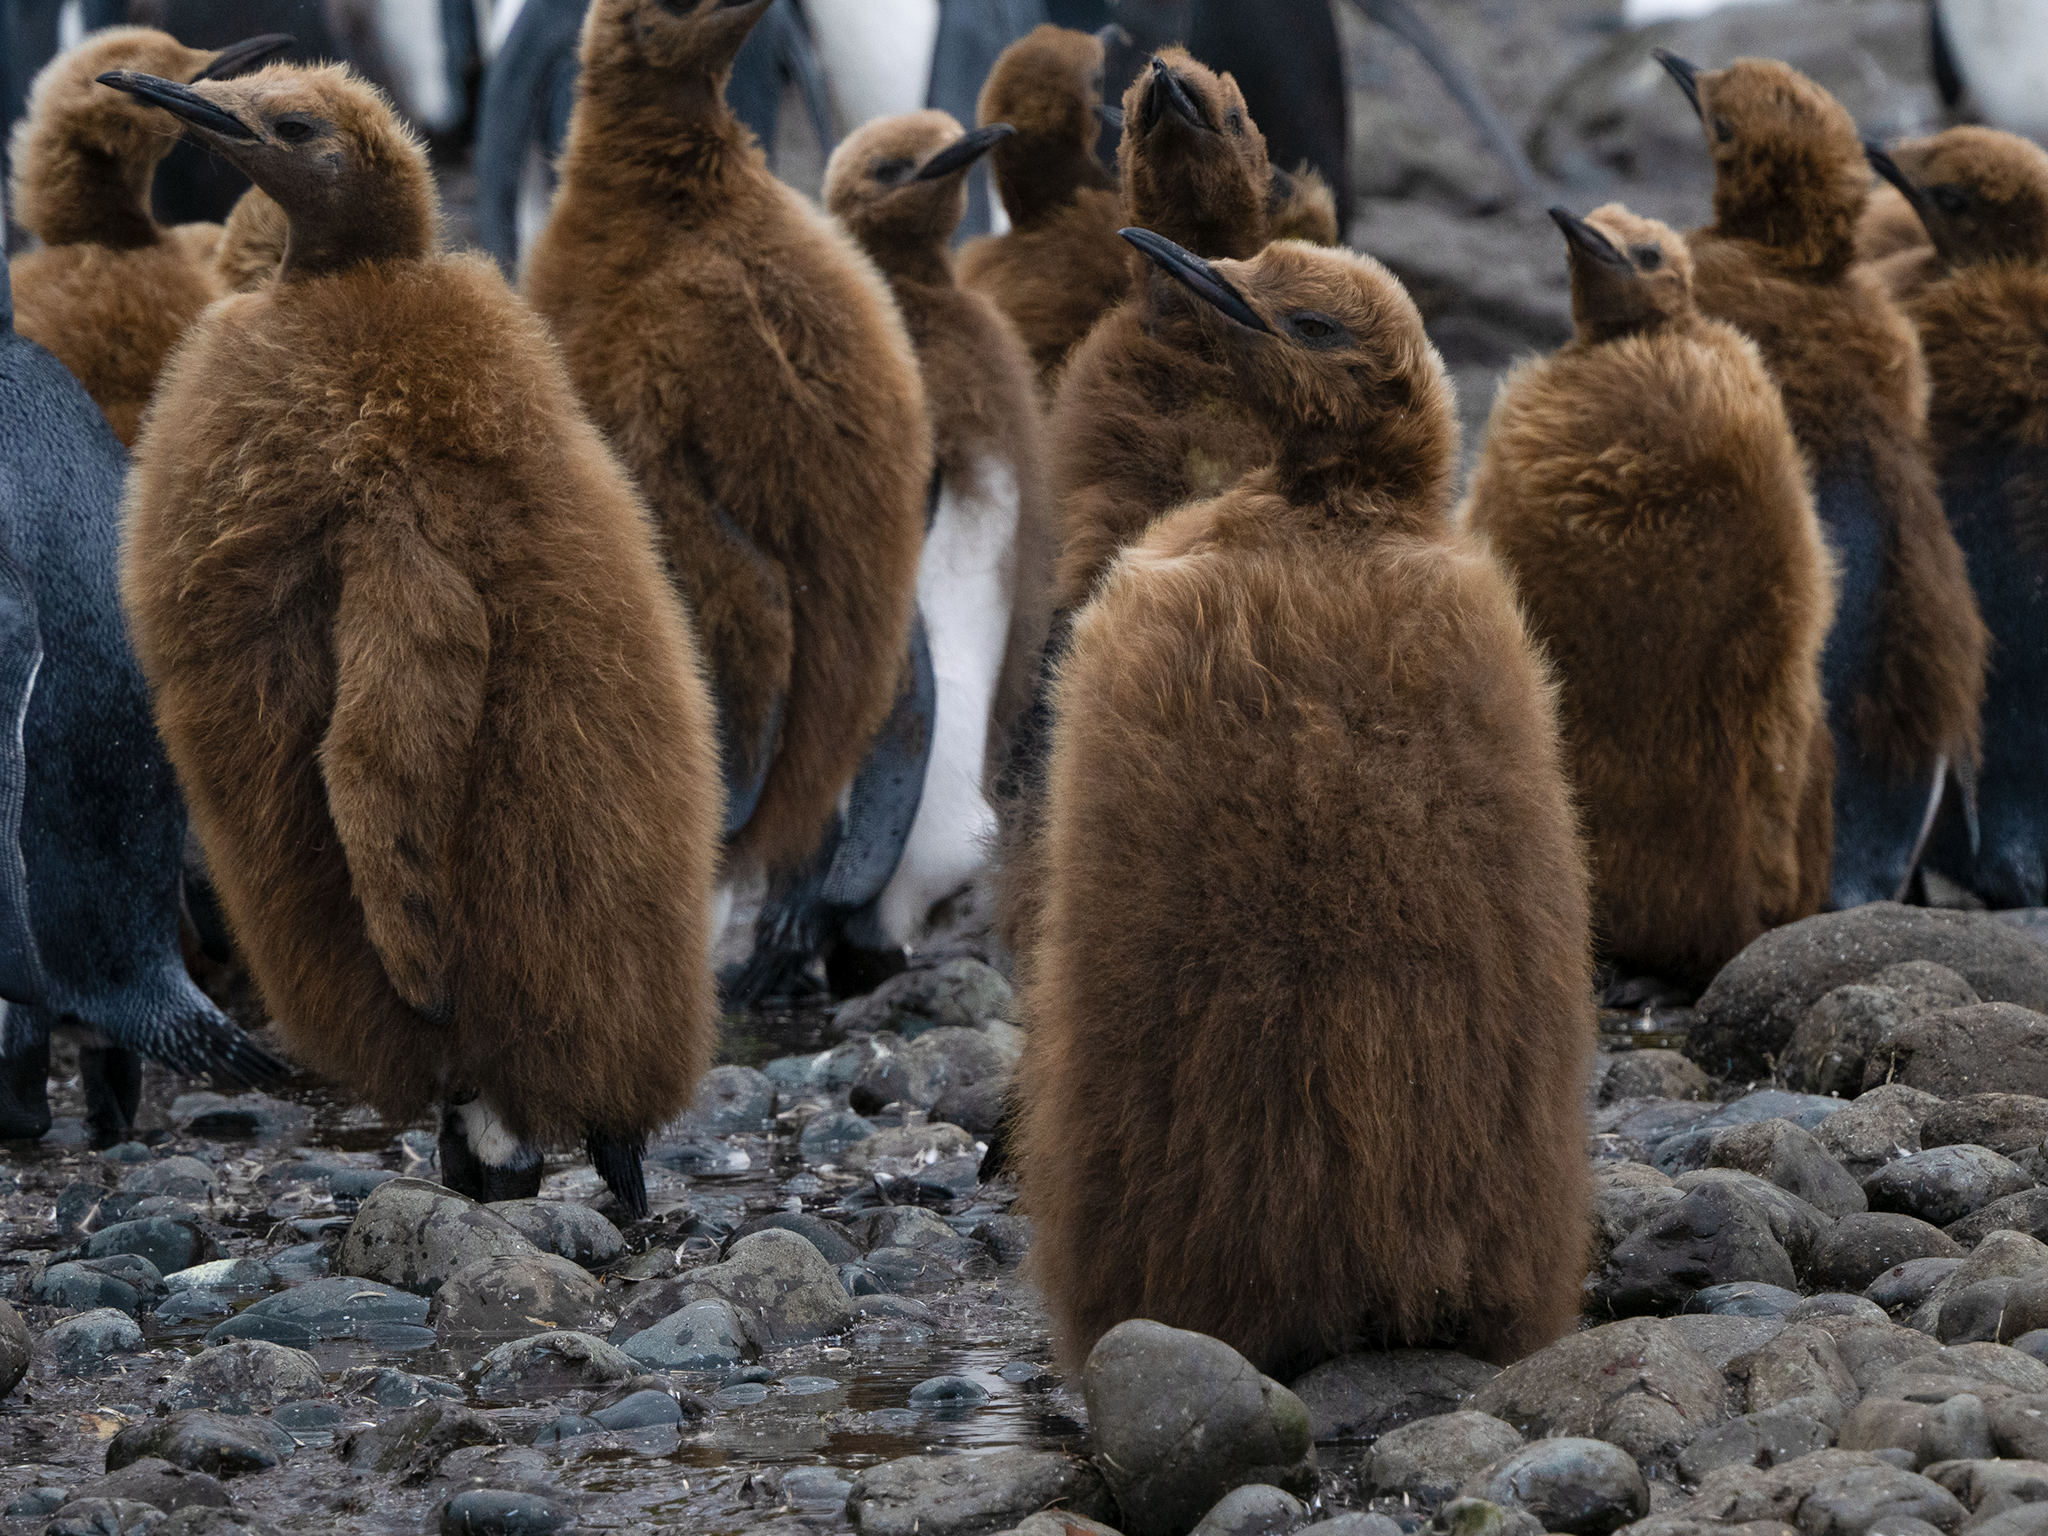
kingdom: Animalia
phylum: Chordata
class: Aves
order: Sphenisciformes
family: Spheniscidae
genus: Aptenodytes
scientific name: Aptenodytes patagonicus
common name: King penguin
